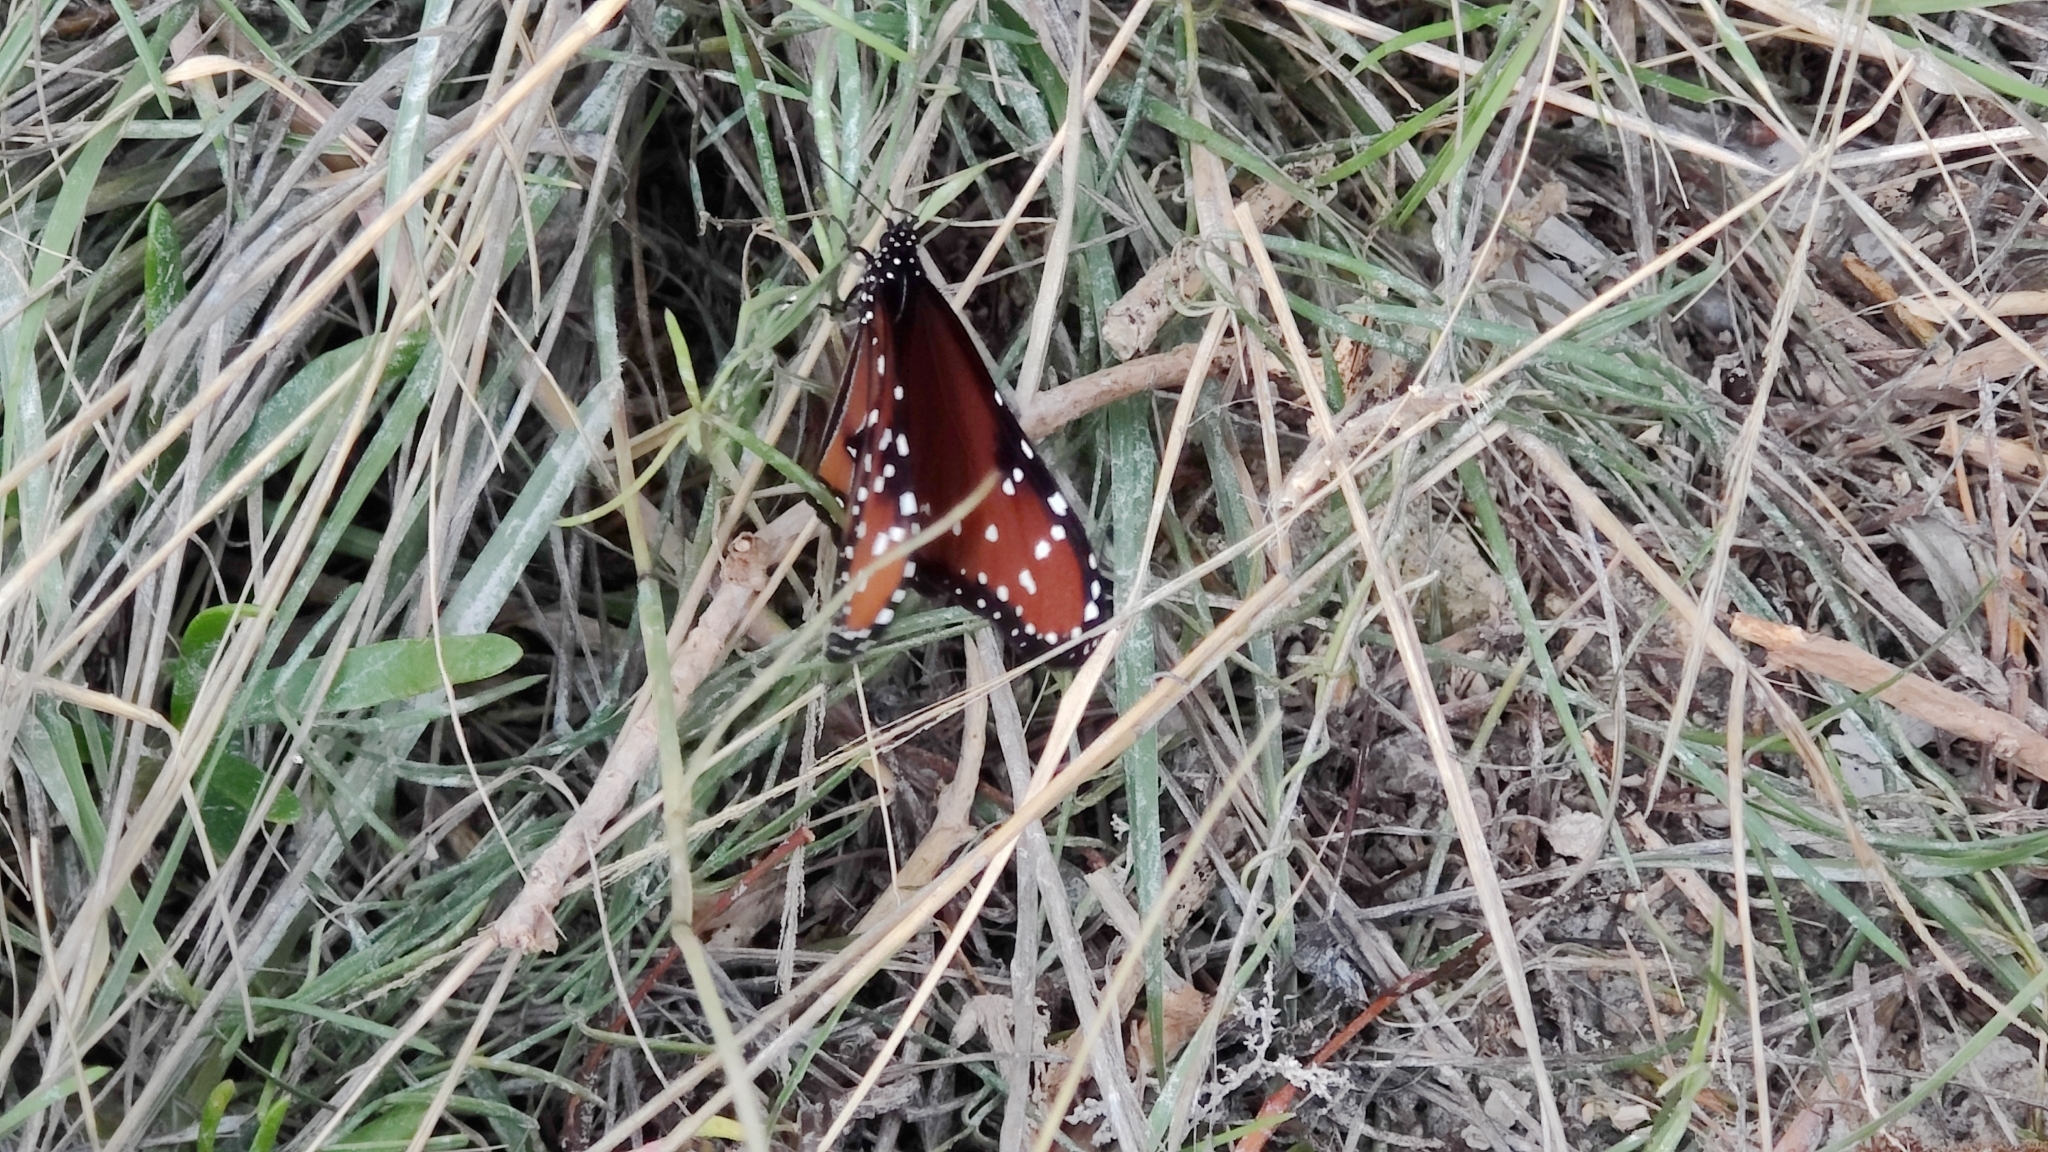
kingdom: Animalia
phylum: Arthropoda
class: Insecta
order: Lepidoptera
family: Nymphalidae
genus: Danaus
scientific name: Danaus gilippus
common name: Queen
